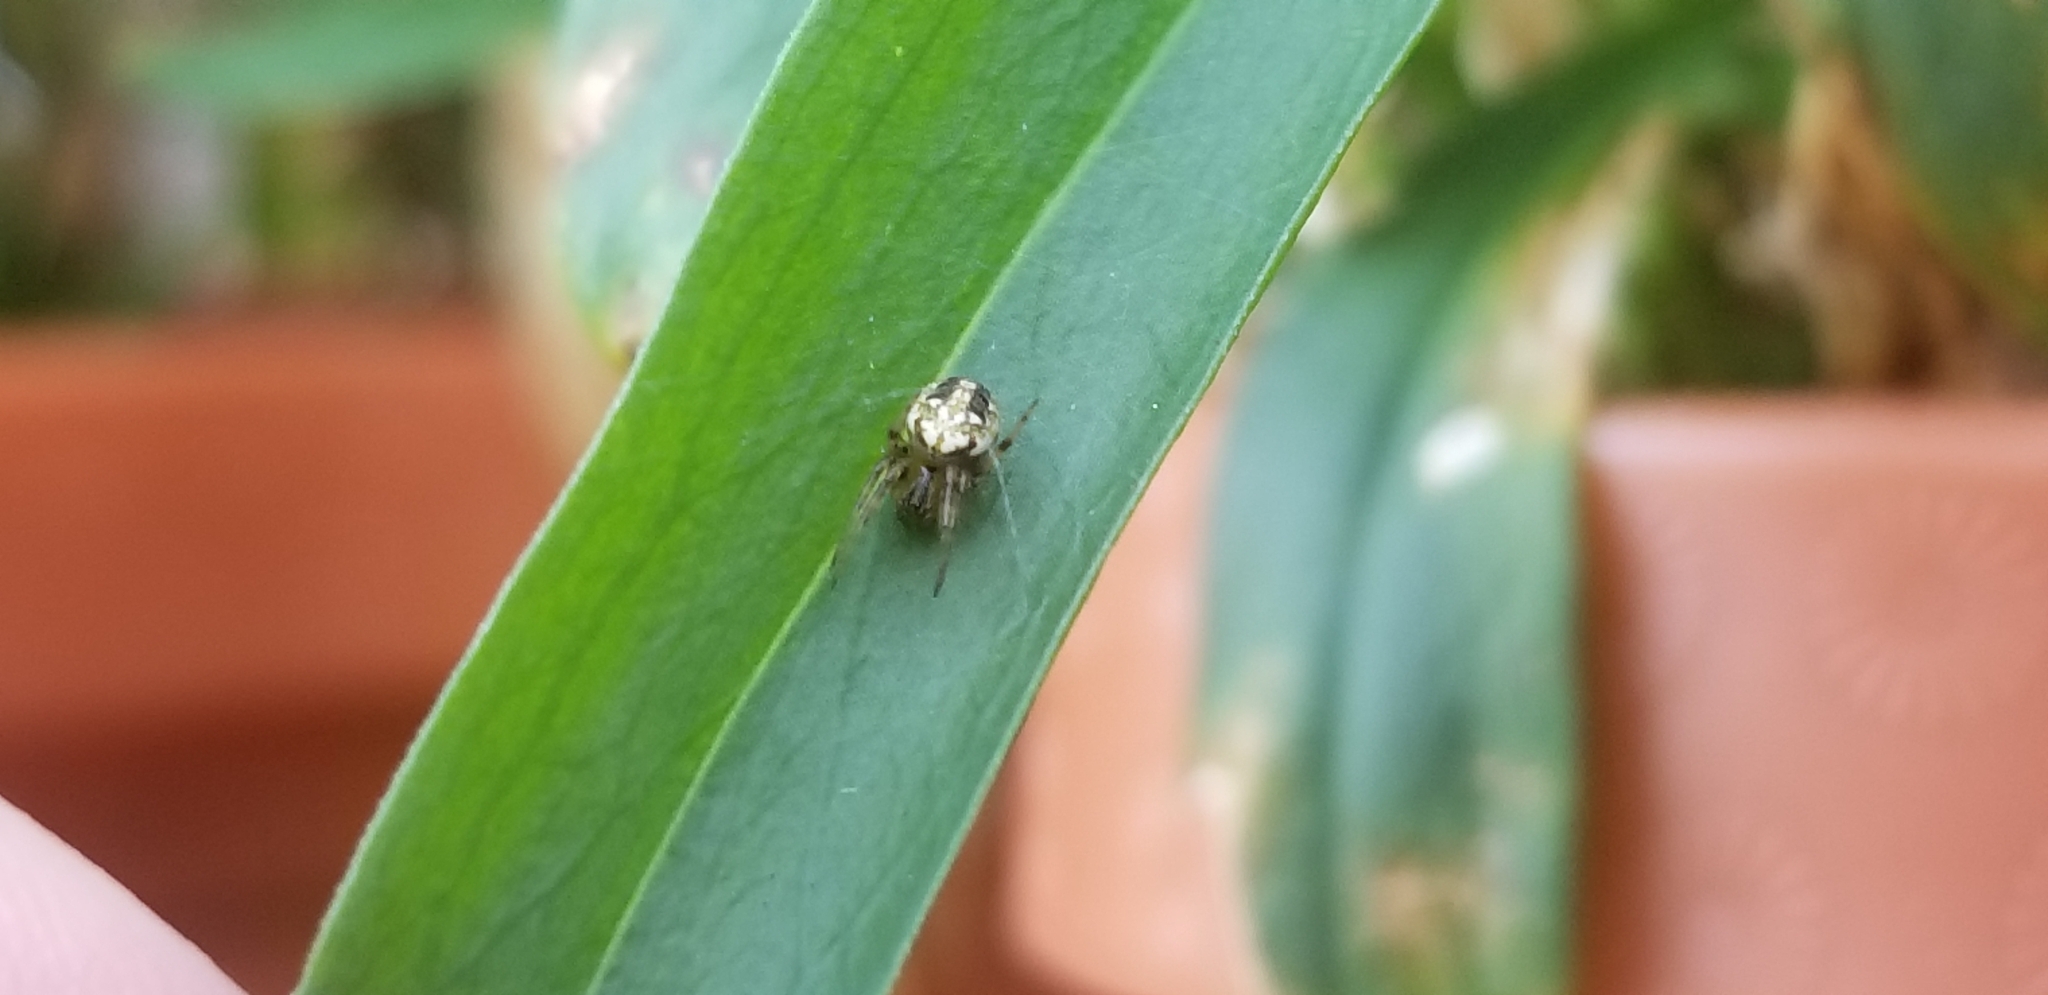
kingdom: Animalia
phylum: Arthropoda
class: Arachnida
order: Araneae
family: Araneidae
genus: Neoscona
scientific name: Neoscona arabesca
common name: Orb weavers
